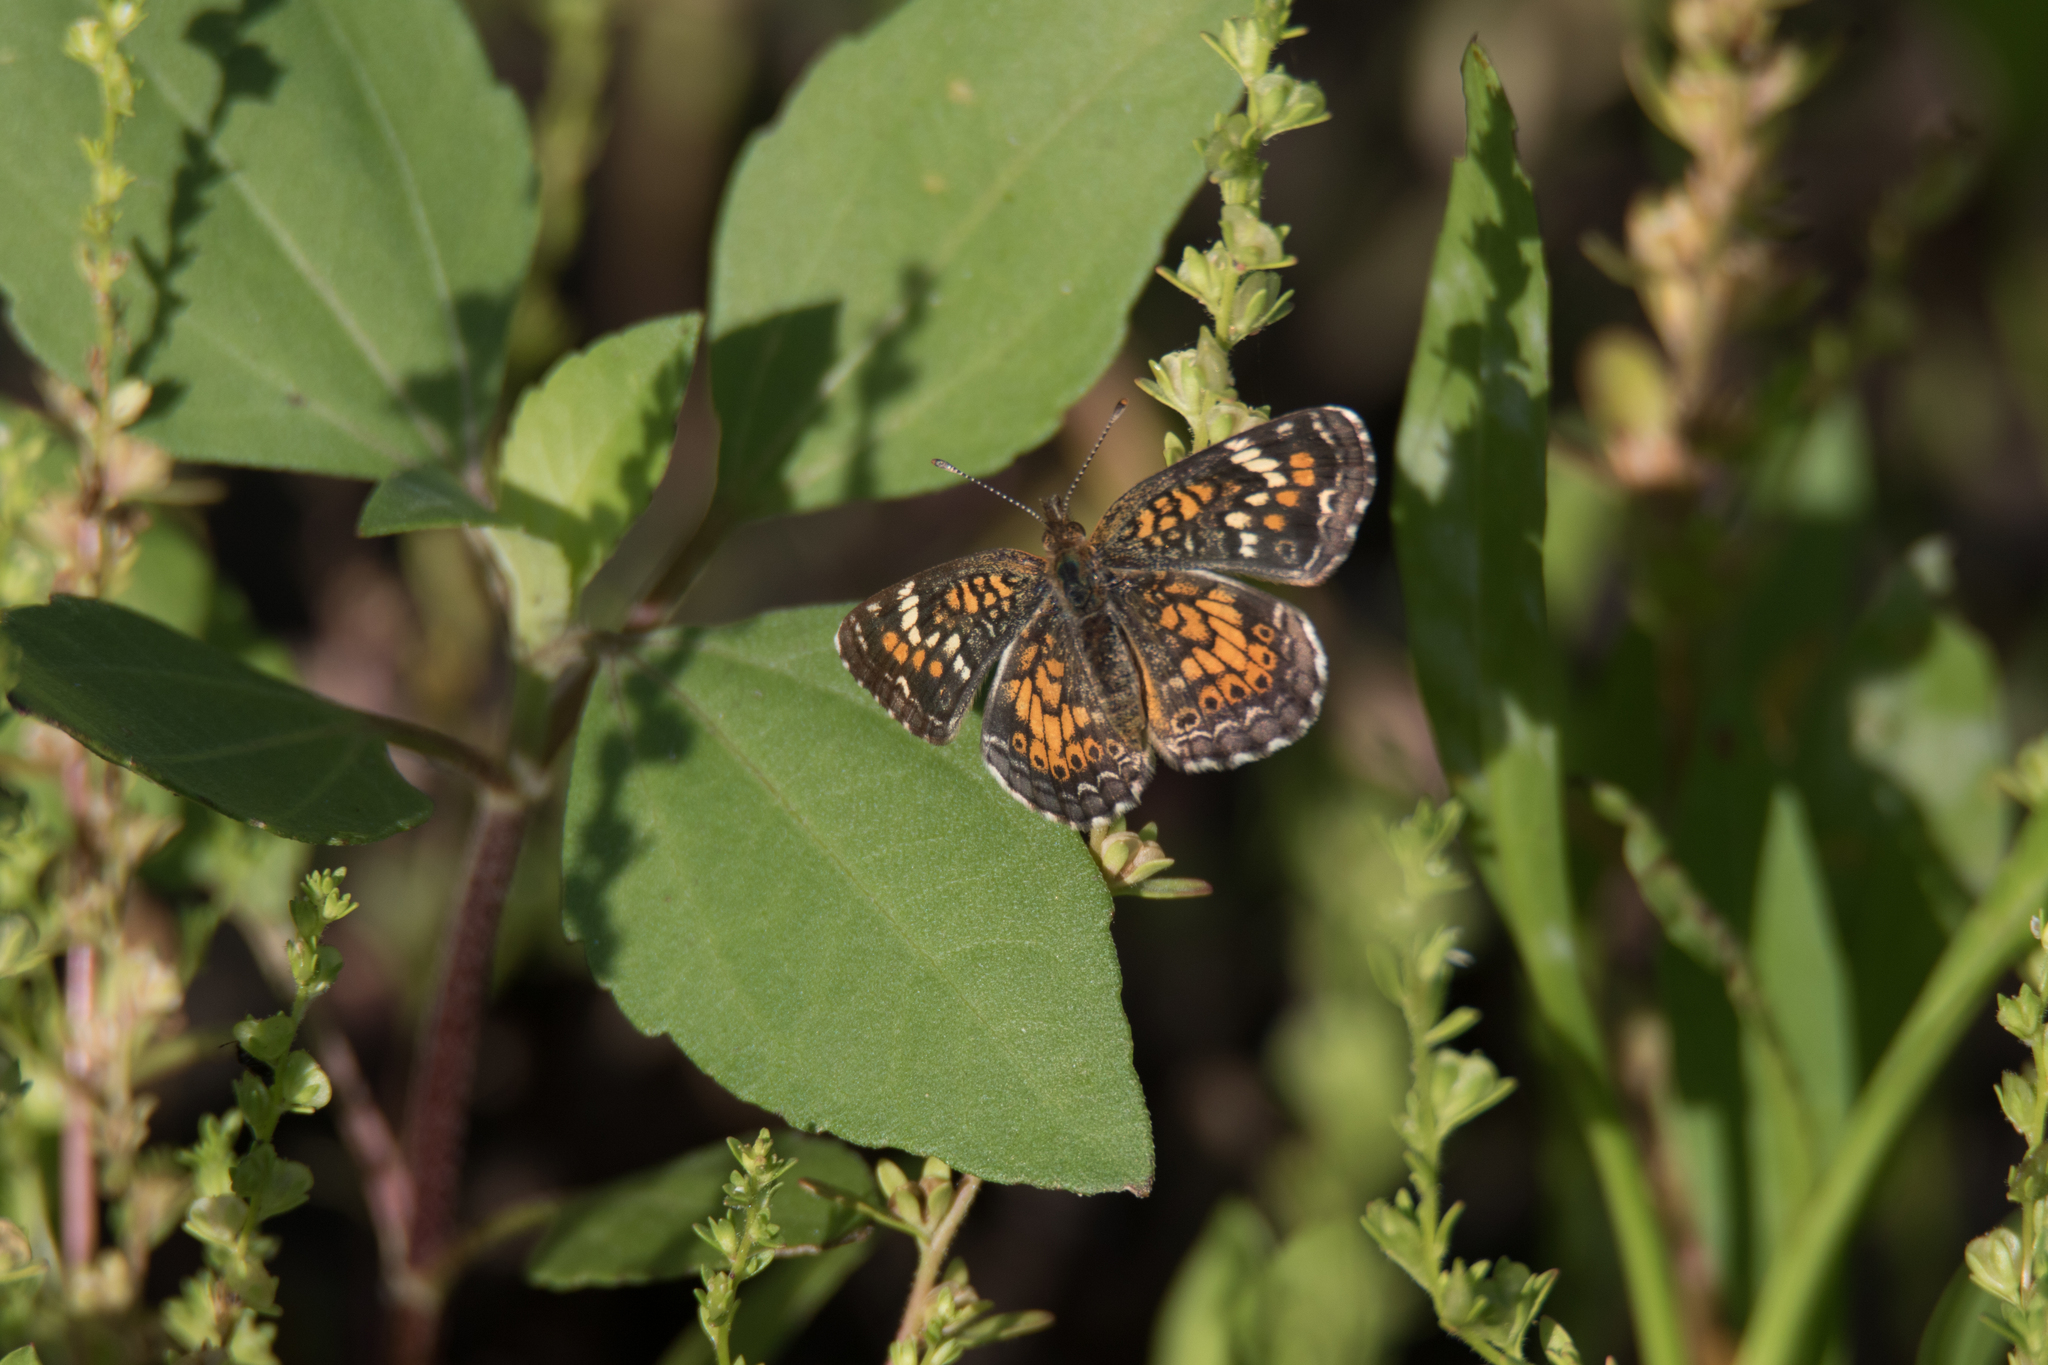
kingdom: Animalia
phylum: Arthropoda
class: Insecta
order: Lepidoptera
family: Nymphalidae
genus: Phyciodes
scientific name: Phyciodes phaon
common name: Phaon crescent
